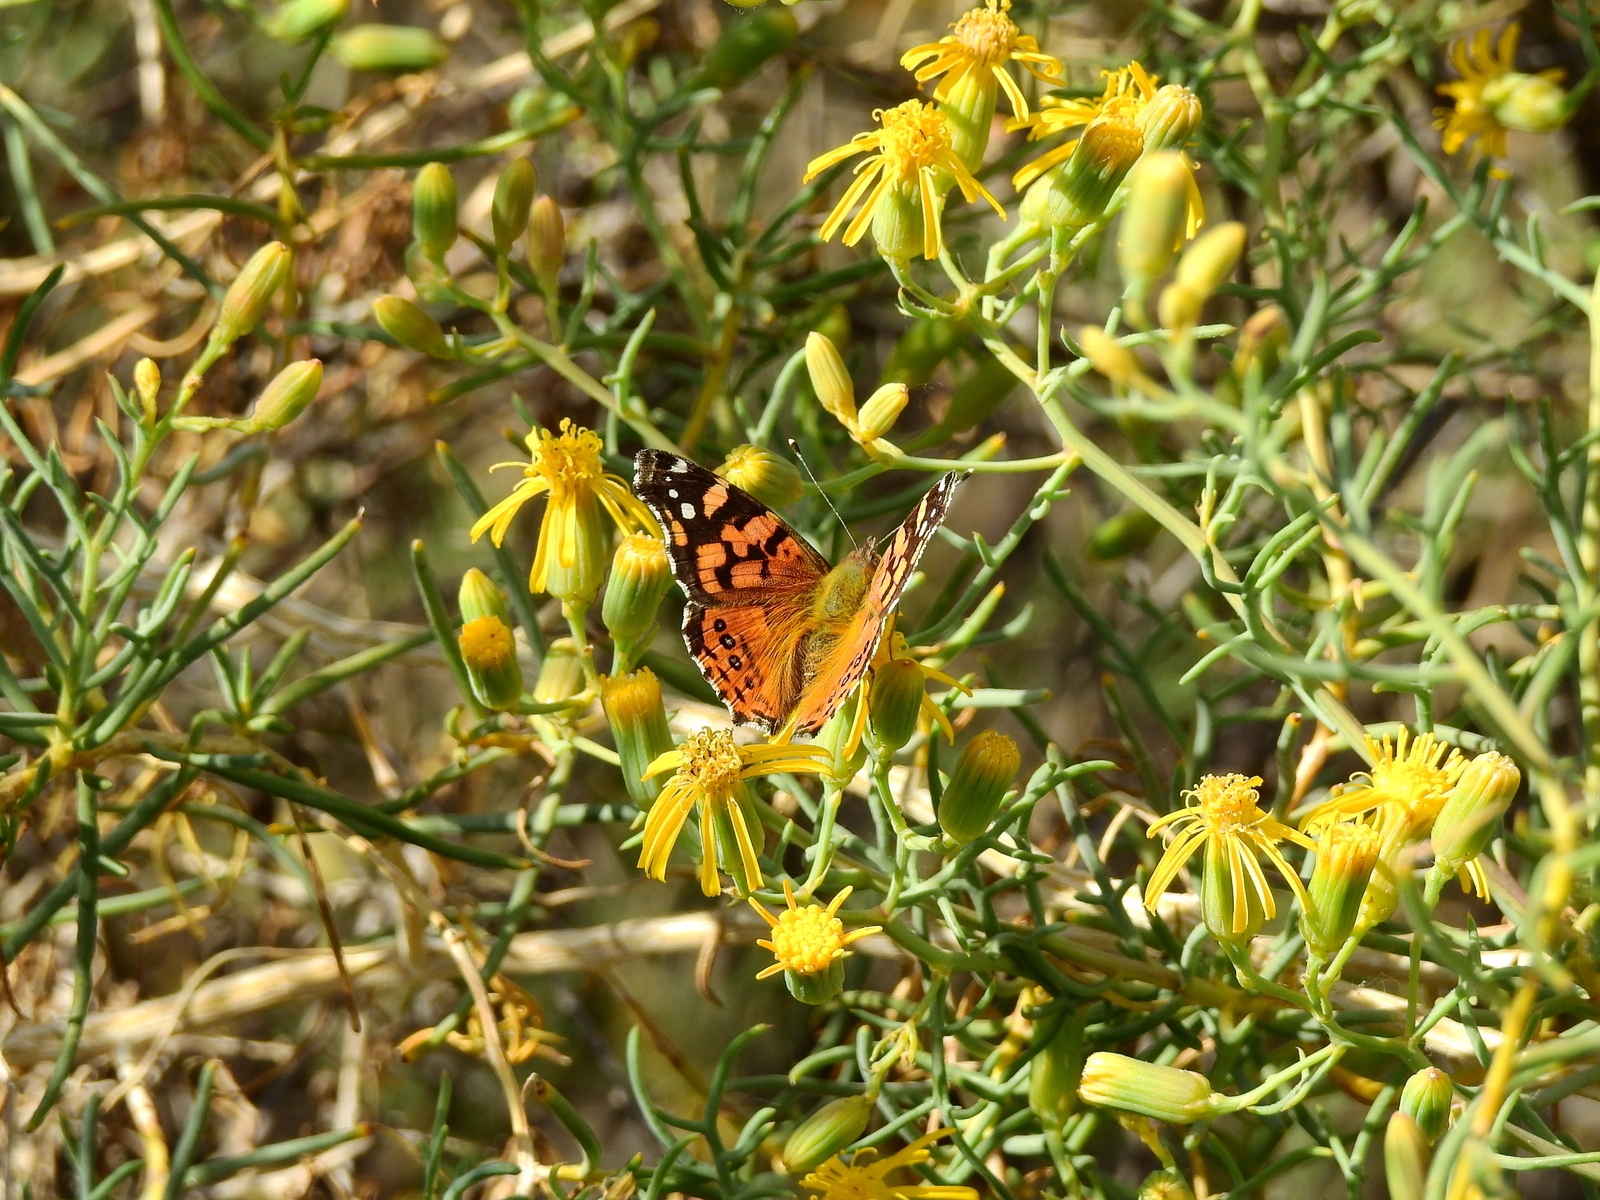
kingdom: Animalia
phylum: Arthropoda
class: Insecta
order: Lepidoptera
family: Nymphalidae
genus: Vanessa
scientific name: Vanessa carye
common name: Subtropical lady
